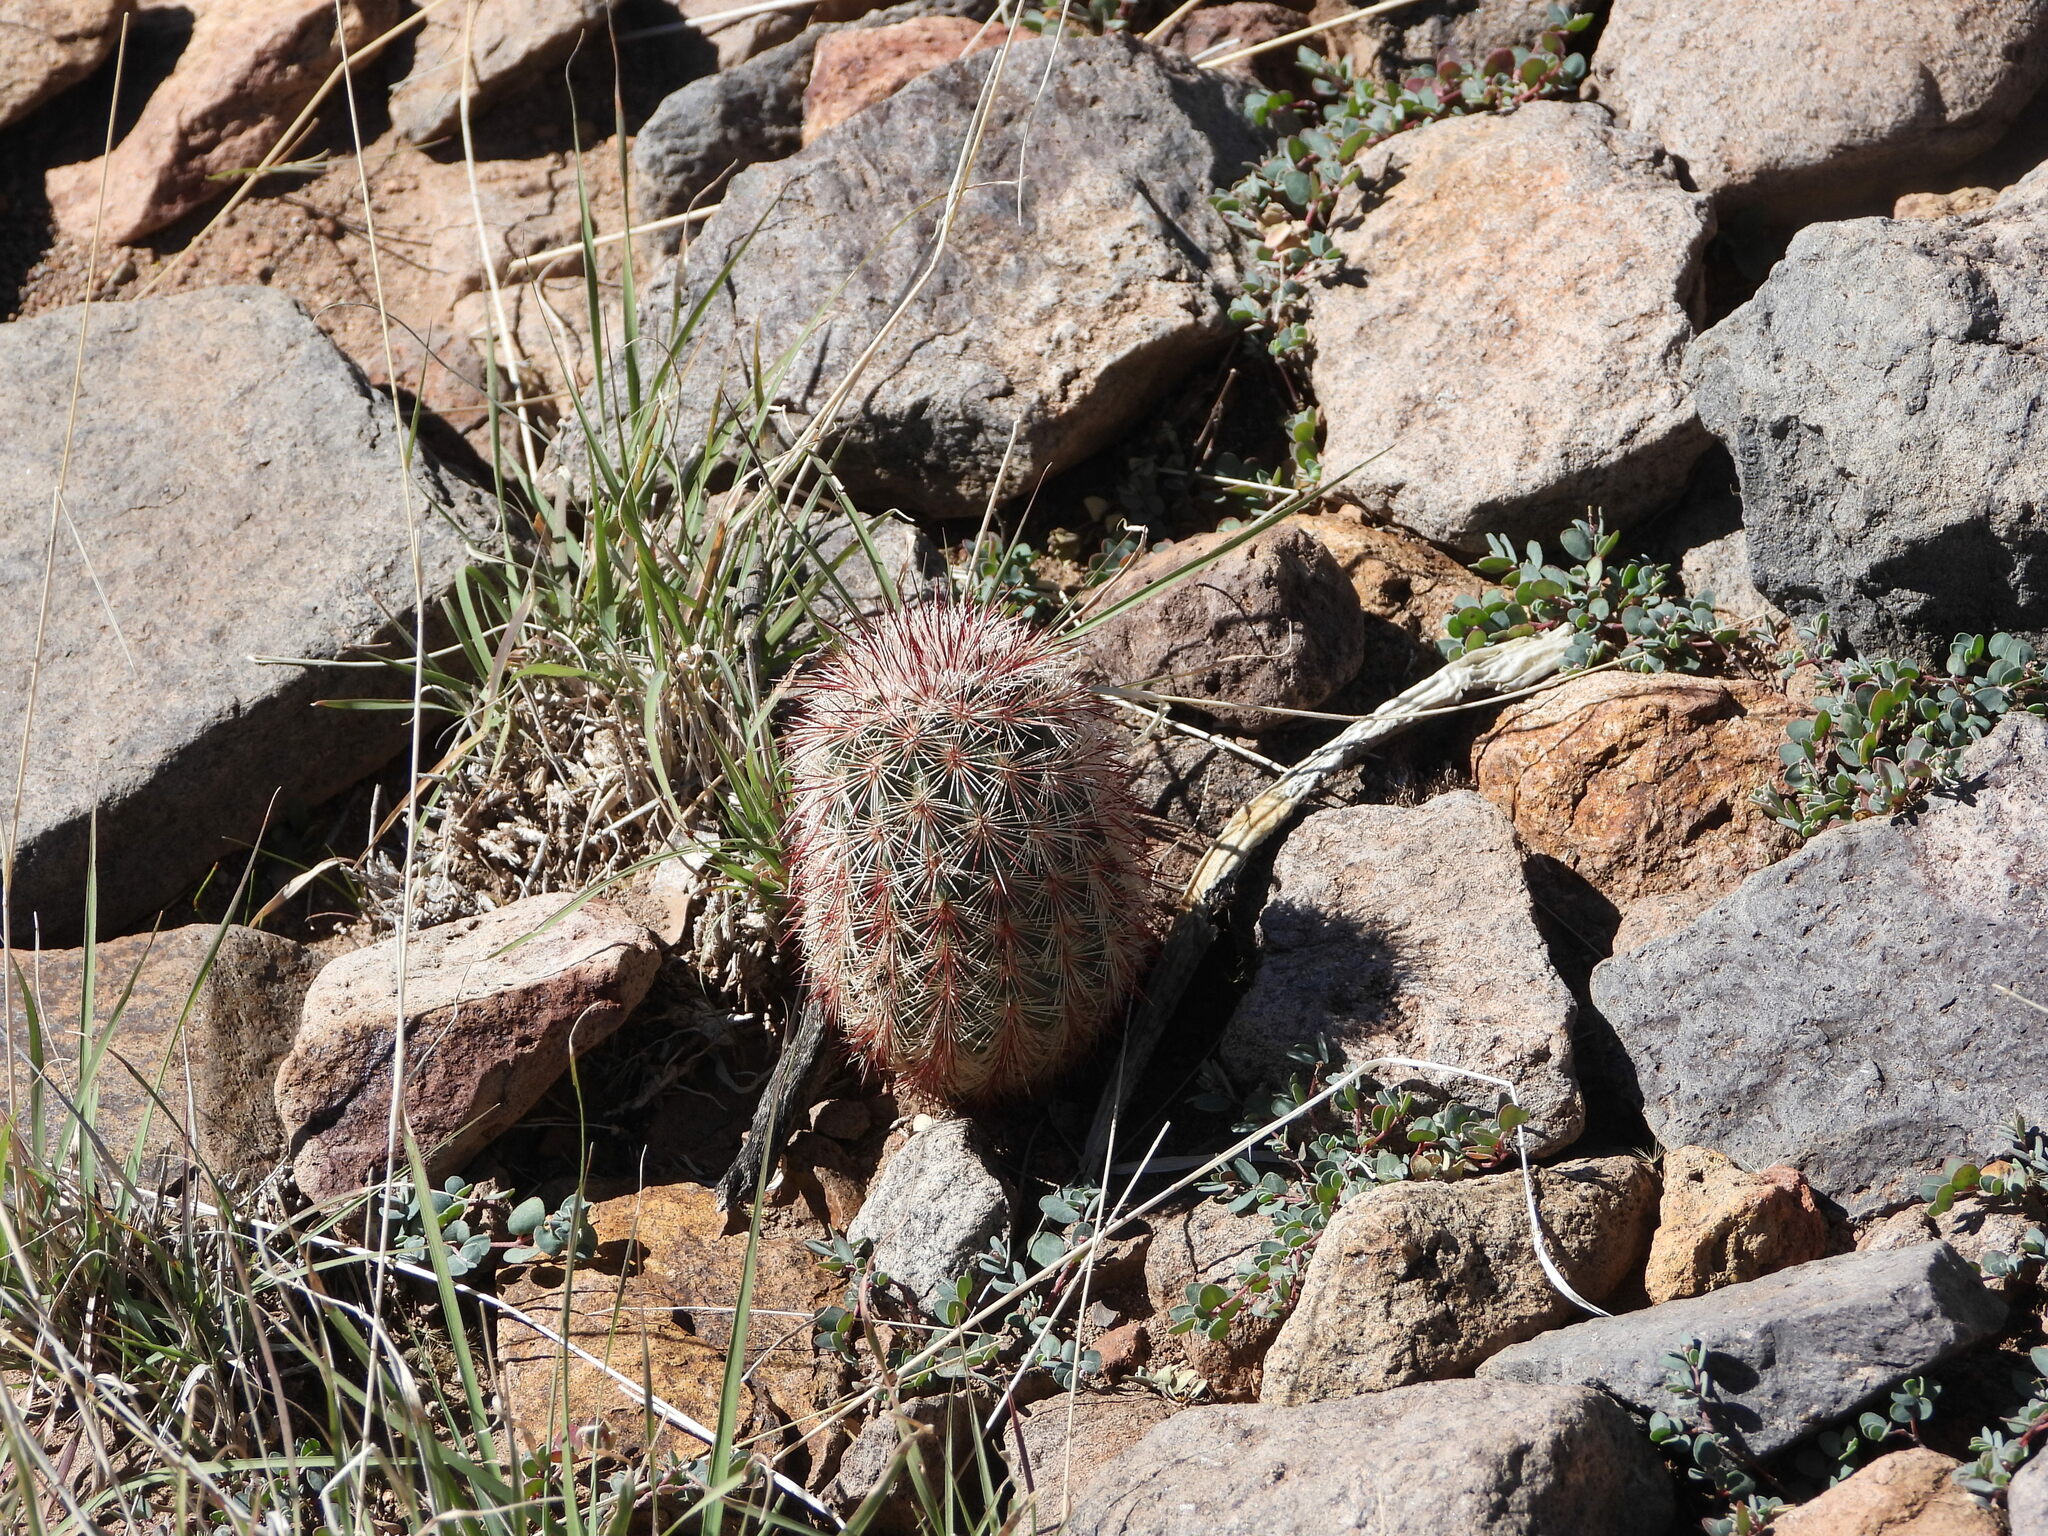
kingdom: Plantae
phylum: Tracheophyta
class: Magnoliopsida
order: Caryophyllales
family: Cactaceae
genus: Echinocereus
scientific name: Echinocereus russanthus
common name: Brownspine hedgehog cactus
